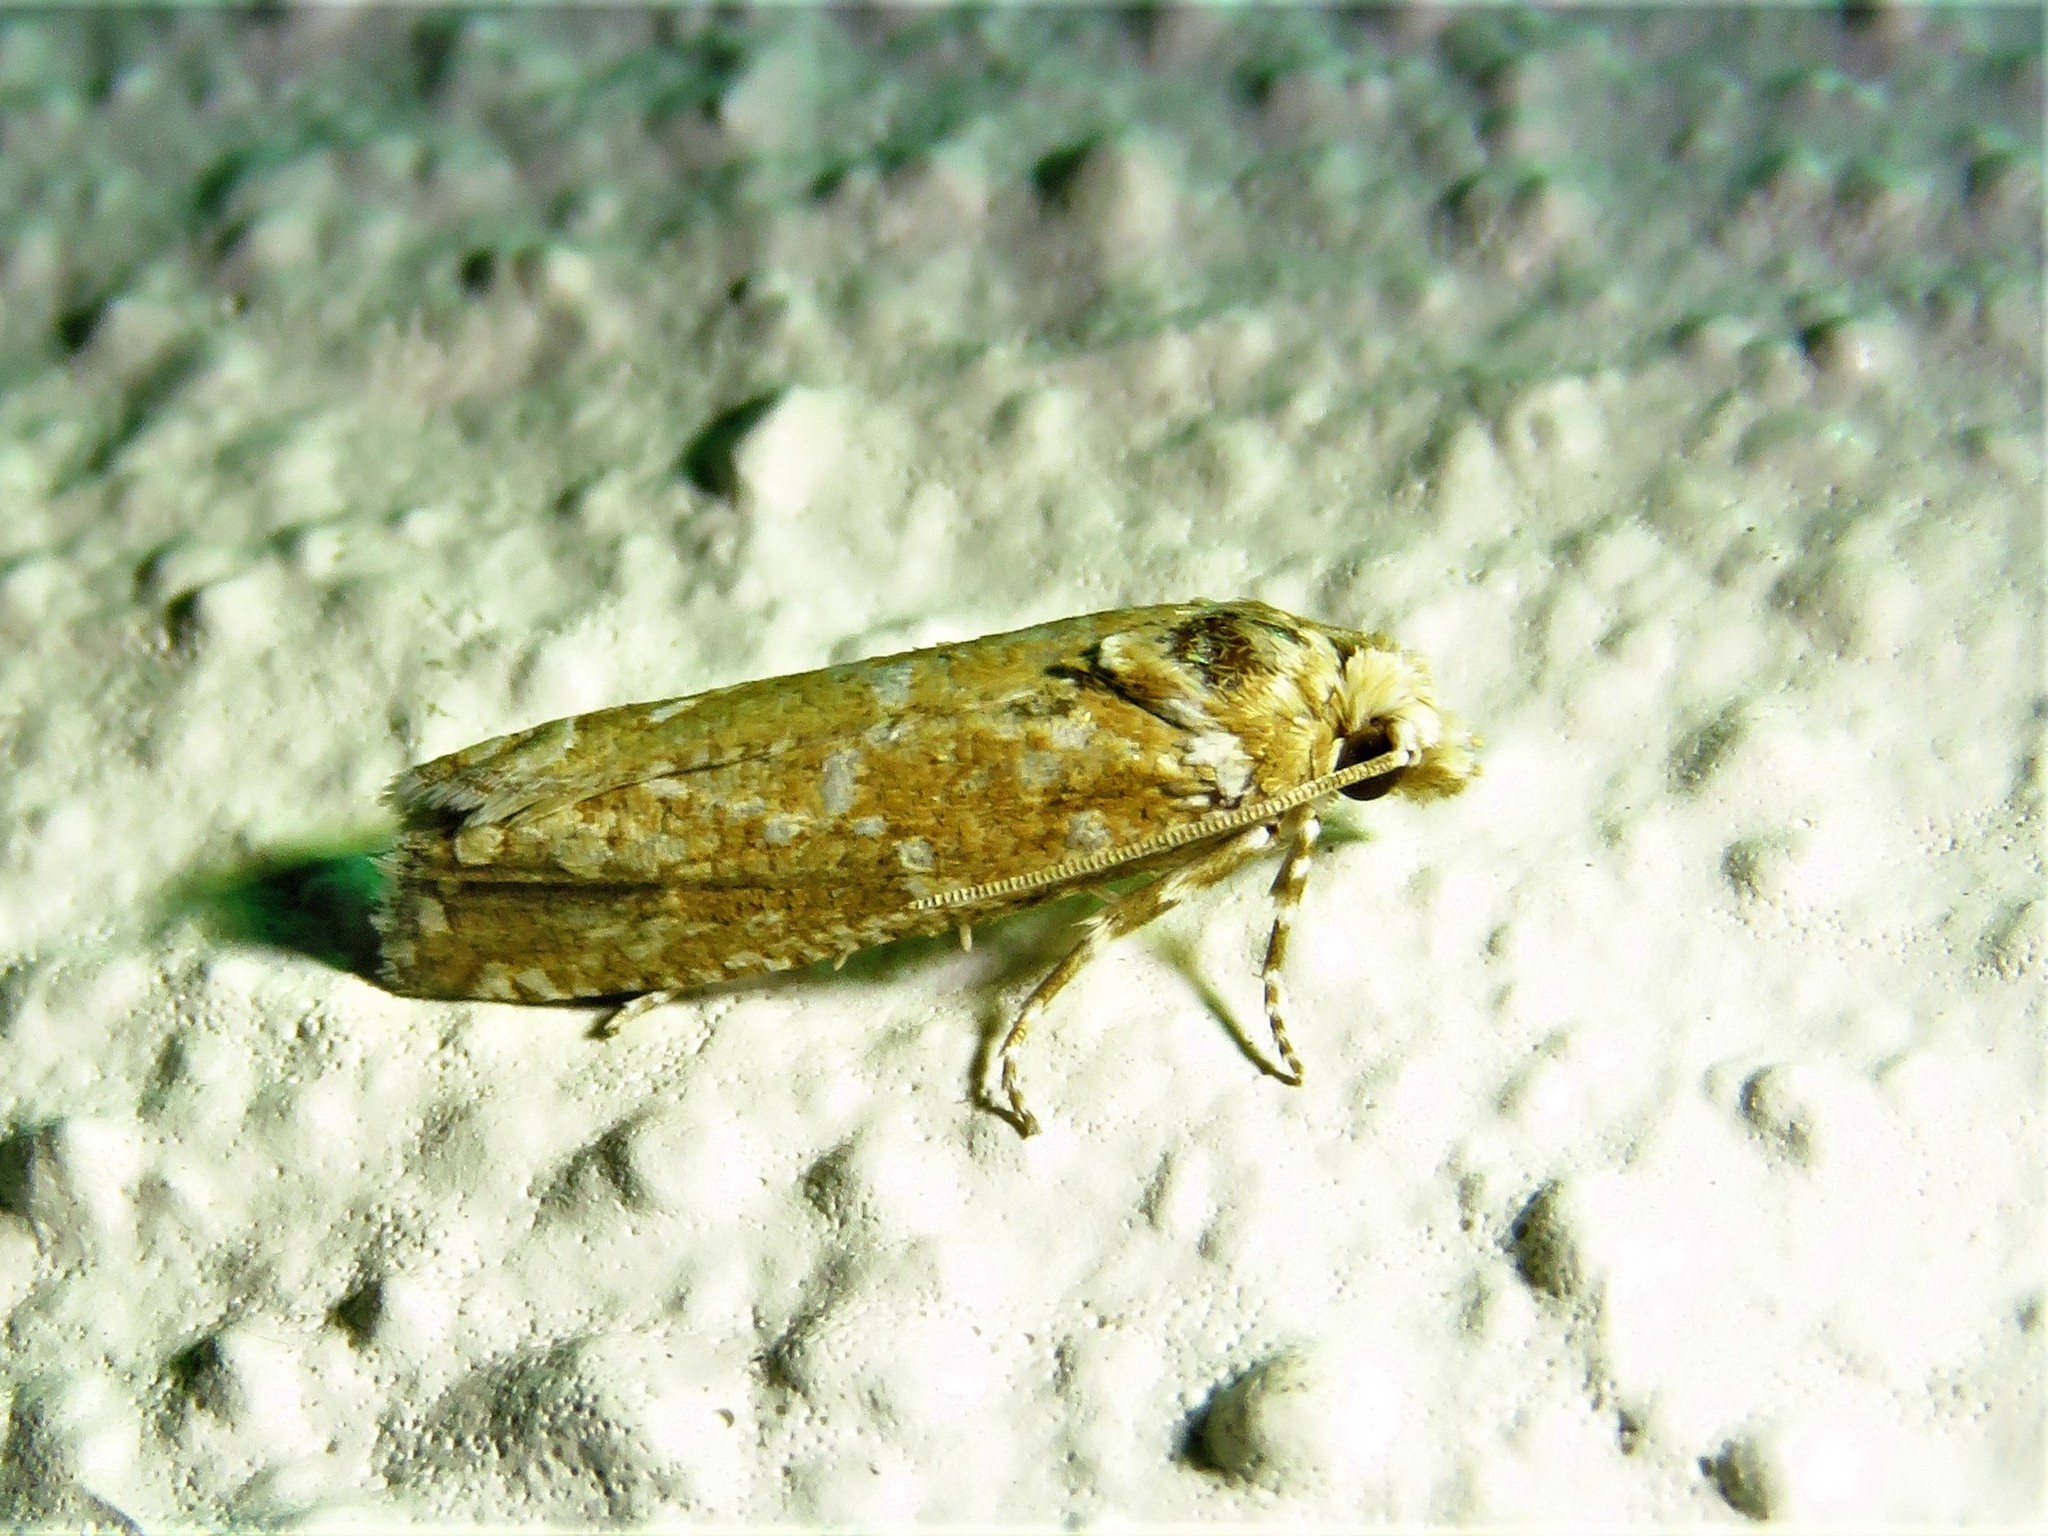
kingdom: Animalia
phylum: Arthropoda
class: Insecta
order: Lepidoptera
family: Tortricidae
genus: Pelochrista
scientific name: Pelochrista guttulana
